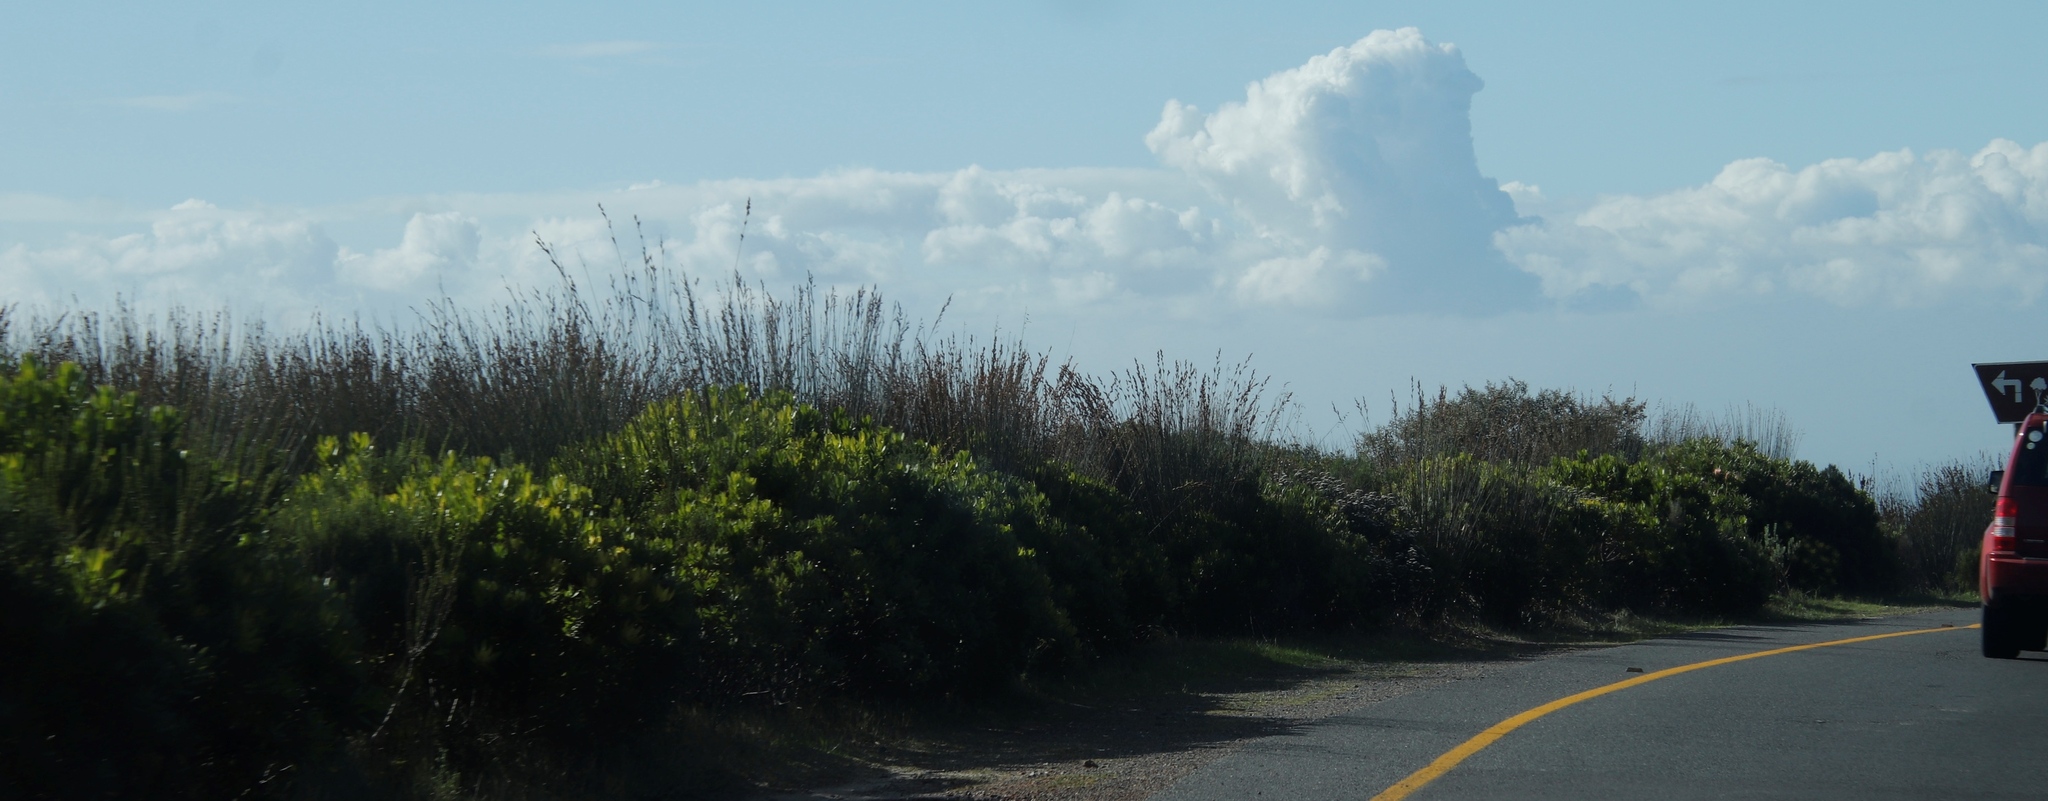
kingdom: Plantae
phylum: Tracheophyta
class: Liliopsida
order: Poales
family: Restionaceae
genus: Thamnochortus
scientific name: Thamnochortus insignis
